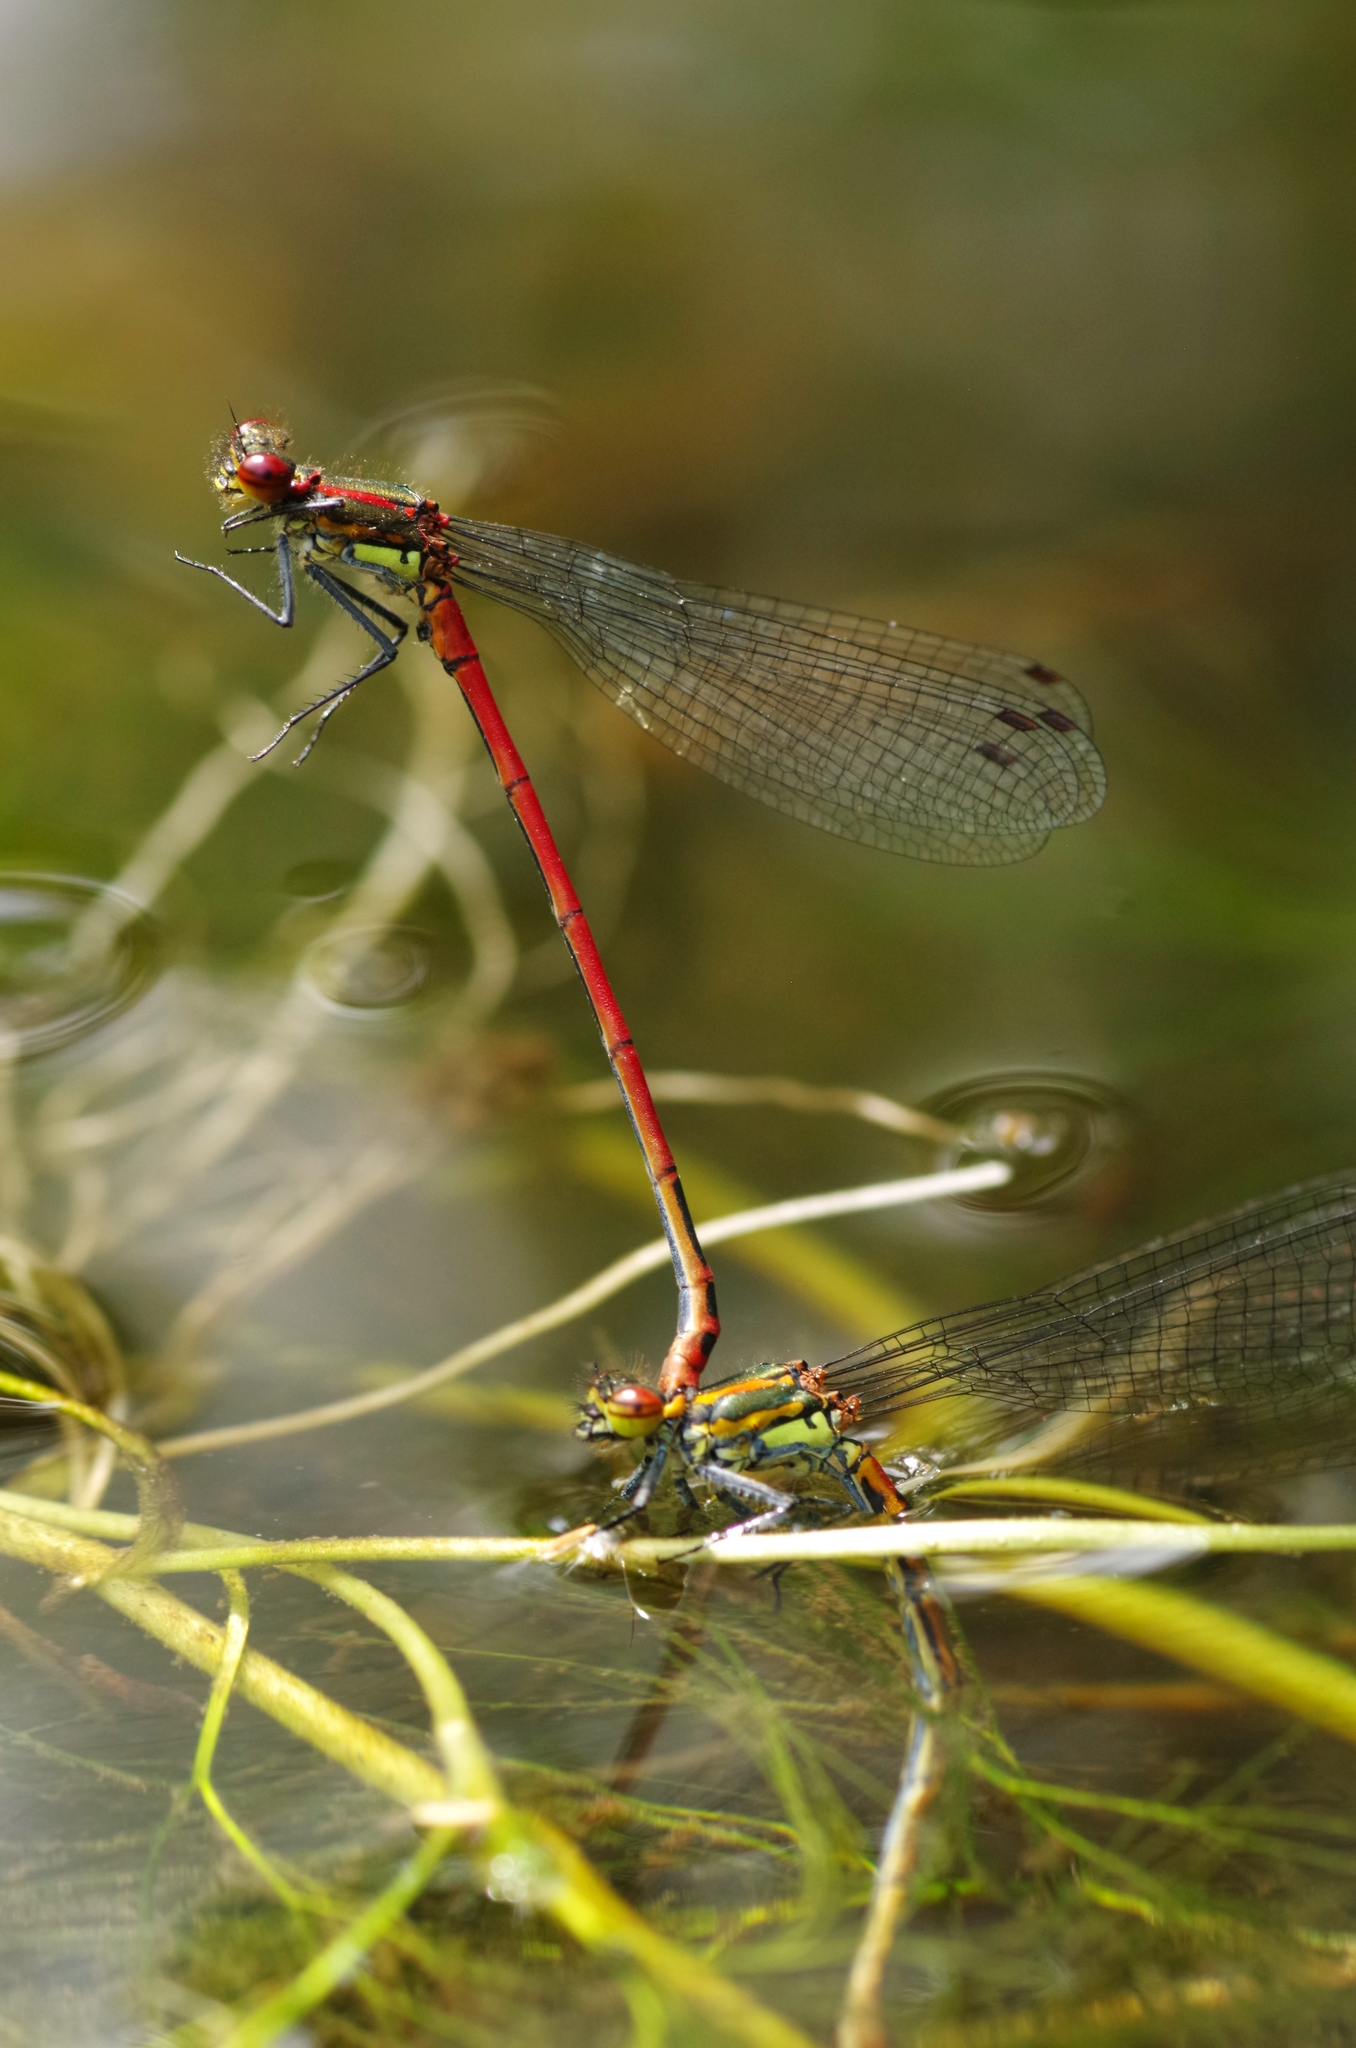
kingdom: Animalia
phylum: Arthropoda
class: Insecta
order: Odonata
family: Coenagrionidae
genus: Pyrrhosoma
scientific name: Pyrrhosoma nymphula
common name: Large red damsel
